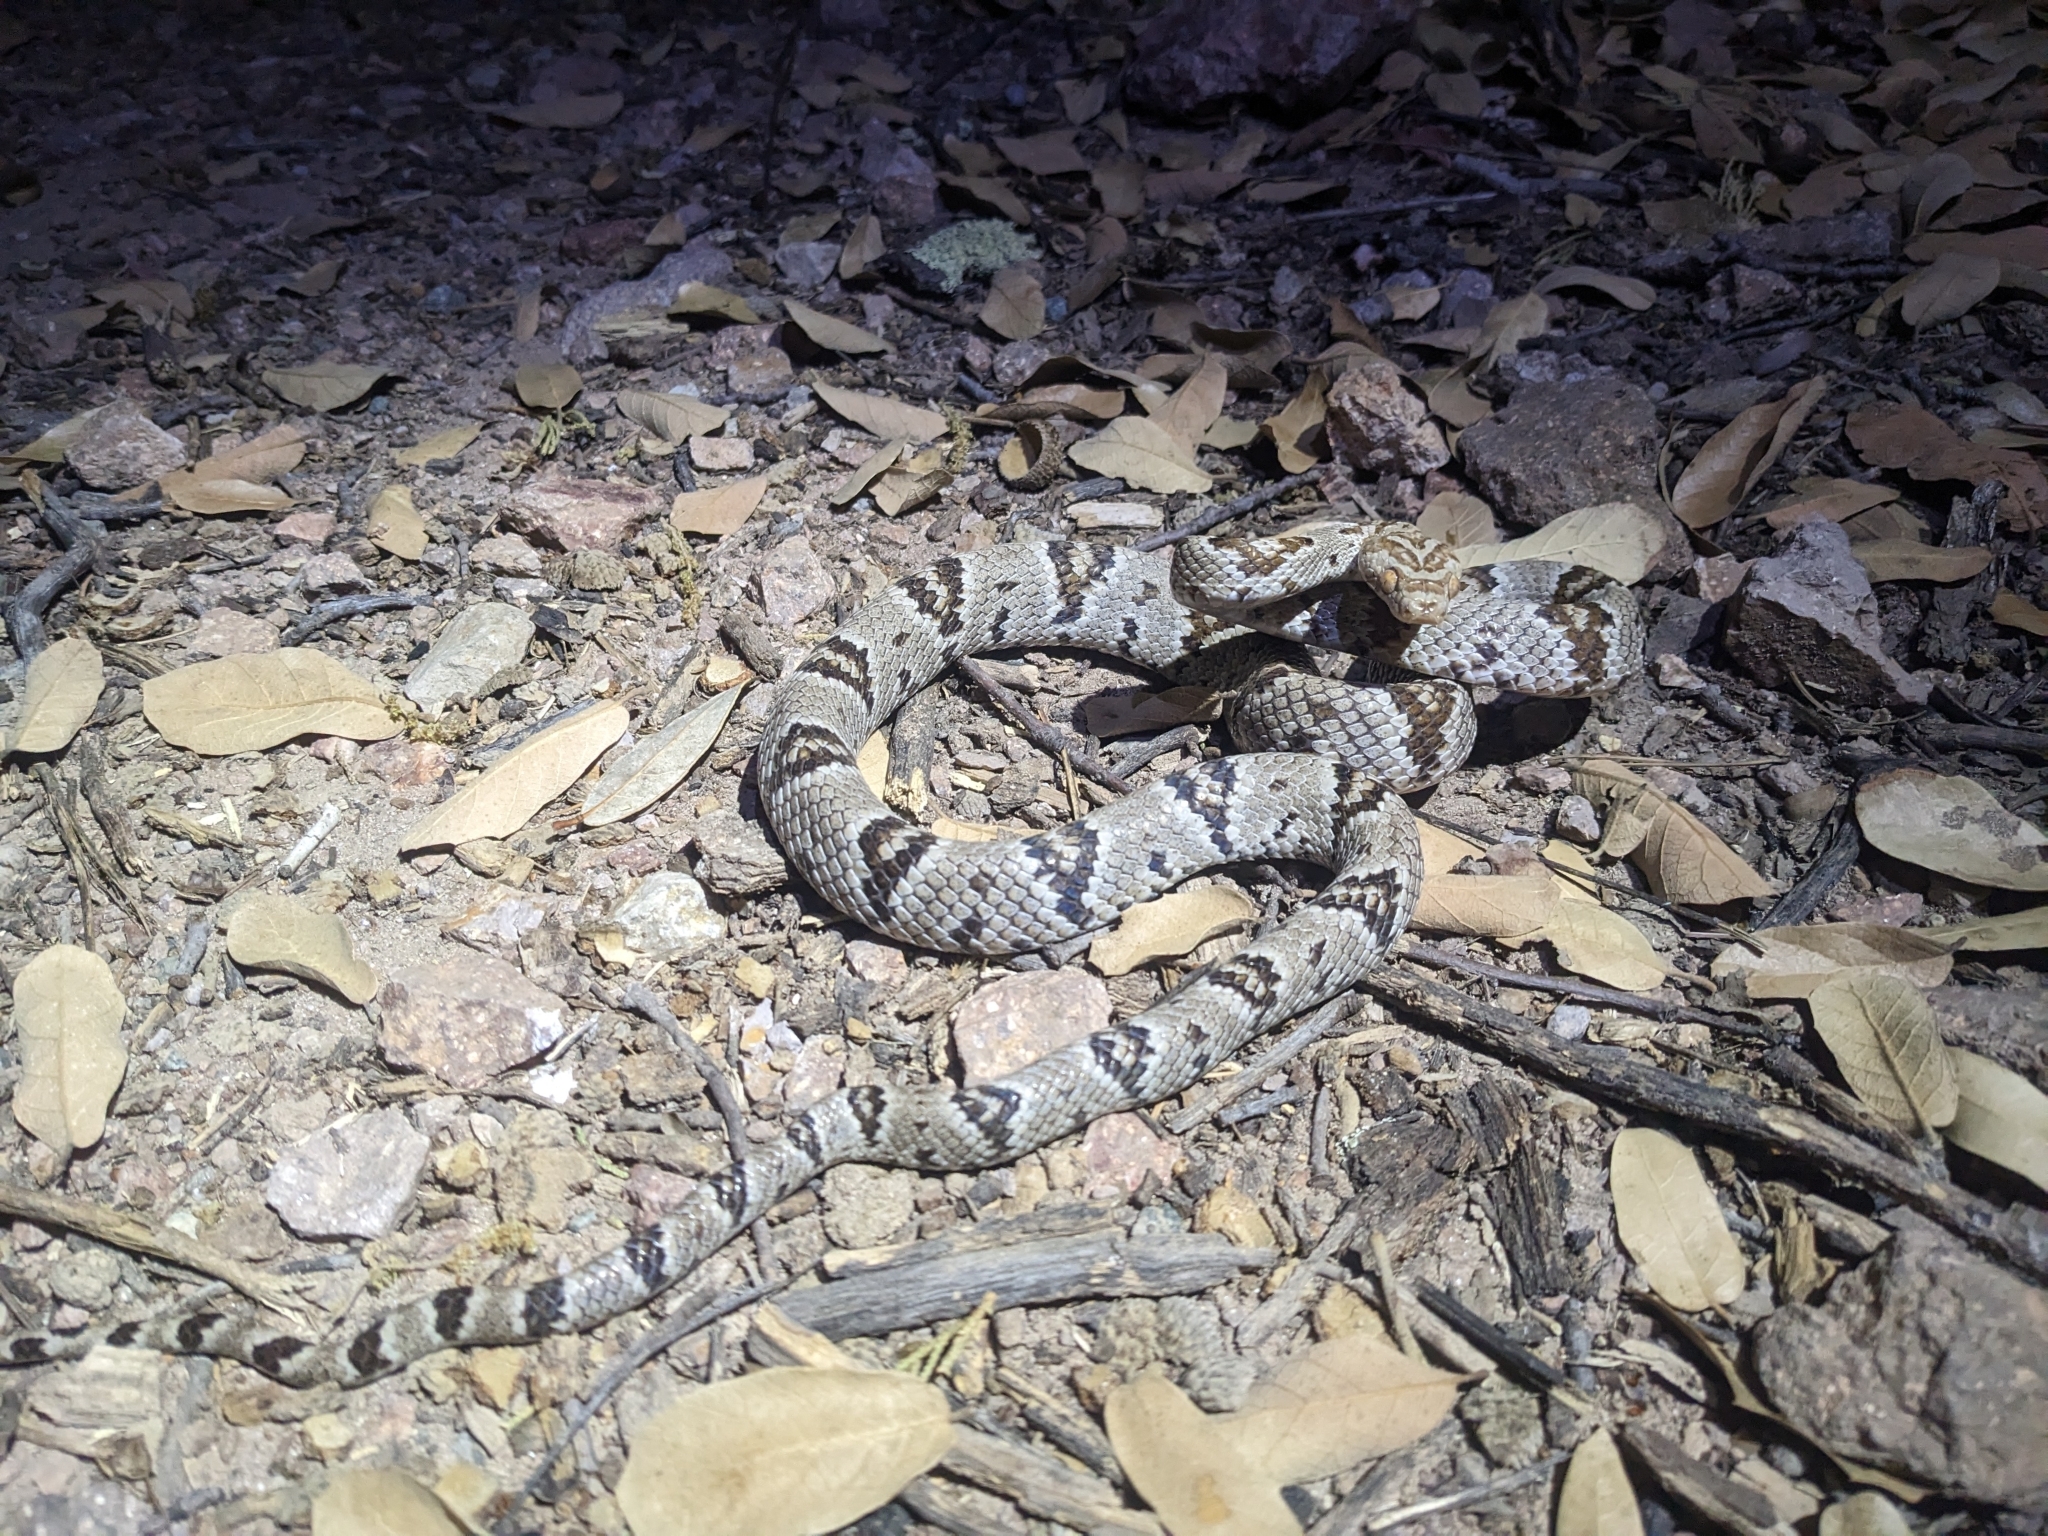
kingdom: Animalia
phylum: Chordata
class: Squamata
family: Colubridae
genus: Trimorphodon
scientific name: Trimorphodon lambda
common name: Sonoran lyre snake
